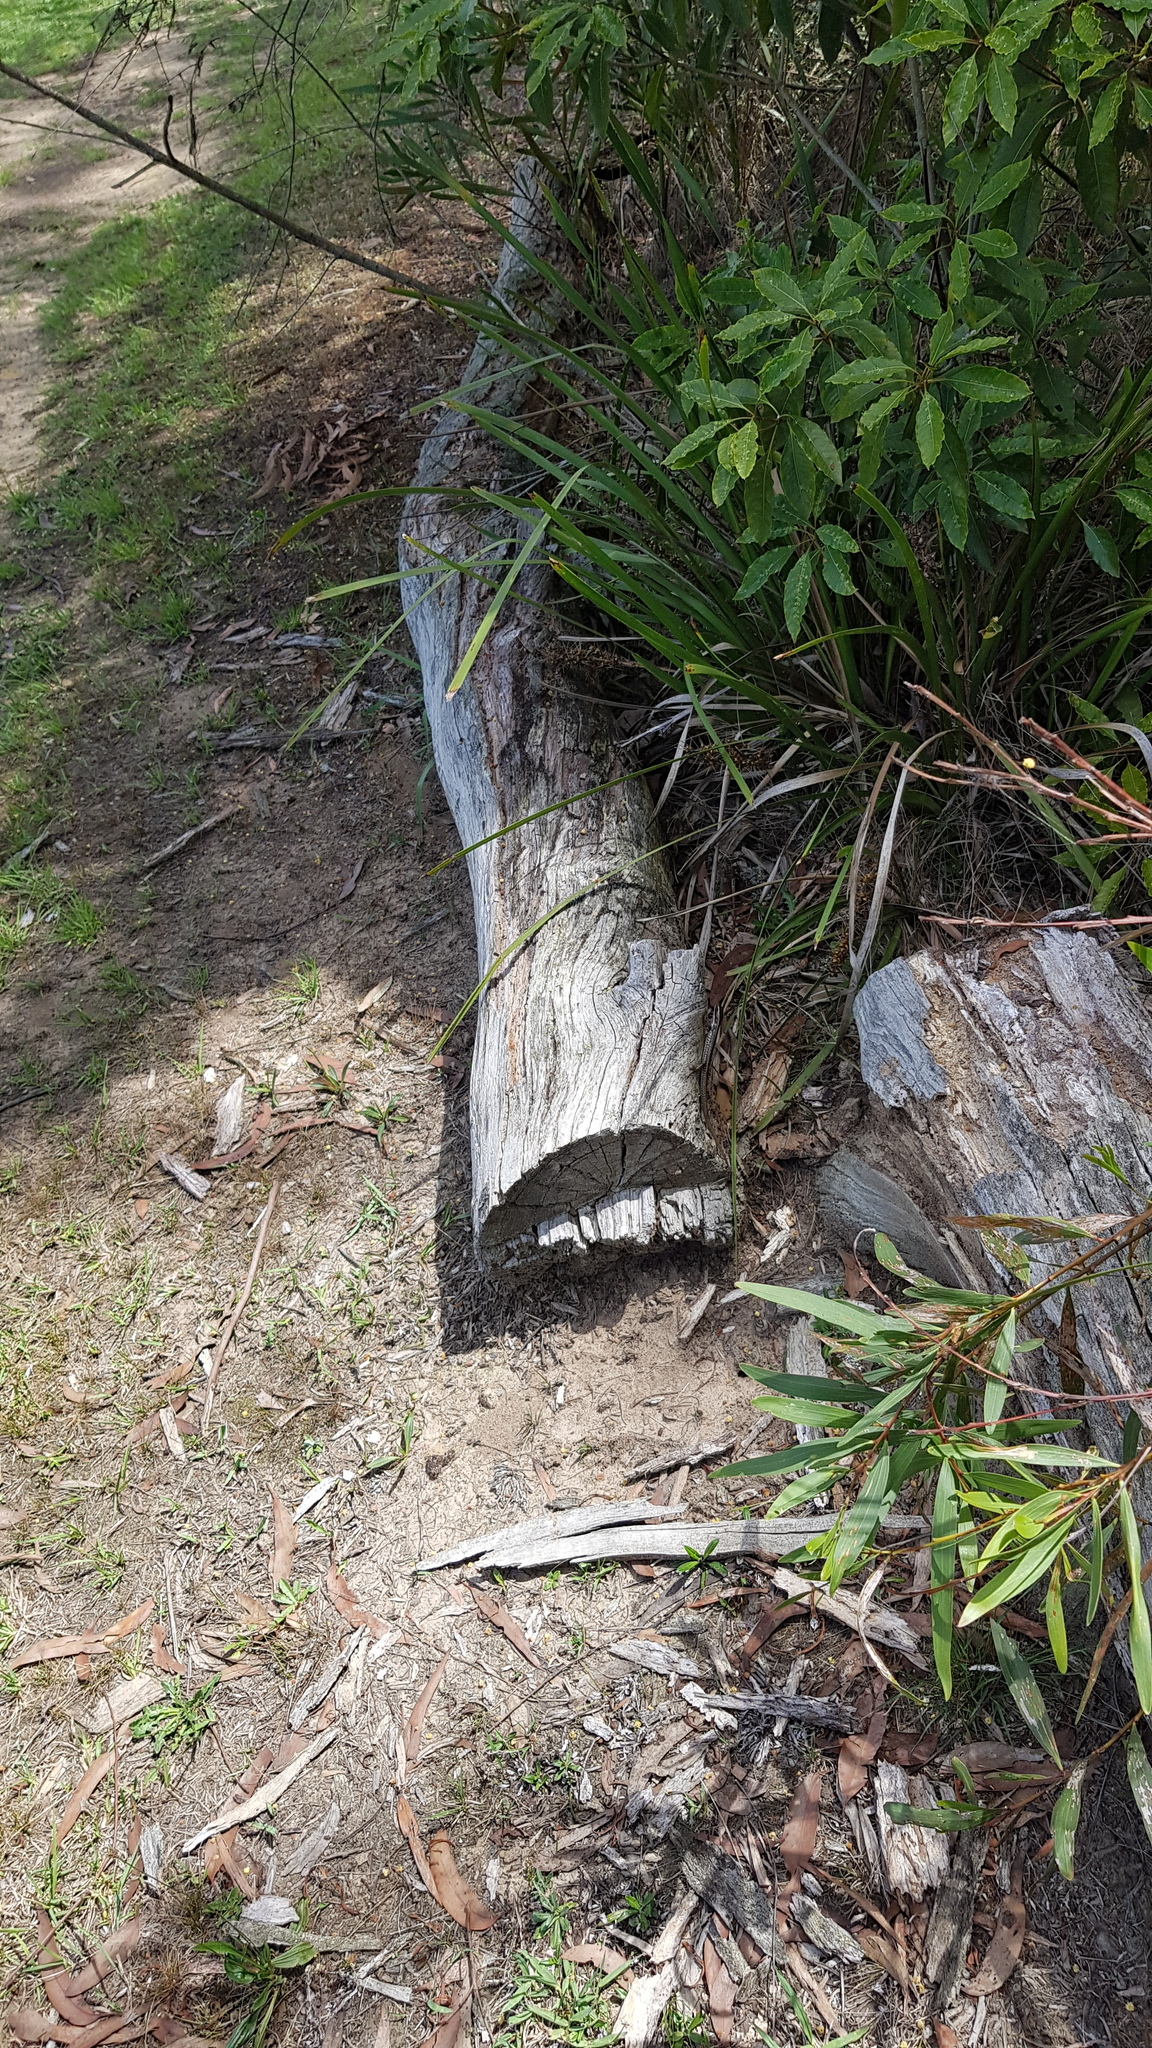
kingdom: Animalia
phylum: Chordata
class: Squamata
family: Scincidae
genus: Eulamprus
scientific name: Eulamprus quoyii
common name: Eastern water skink
